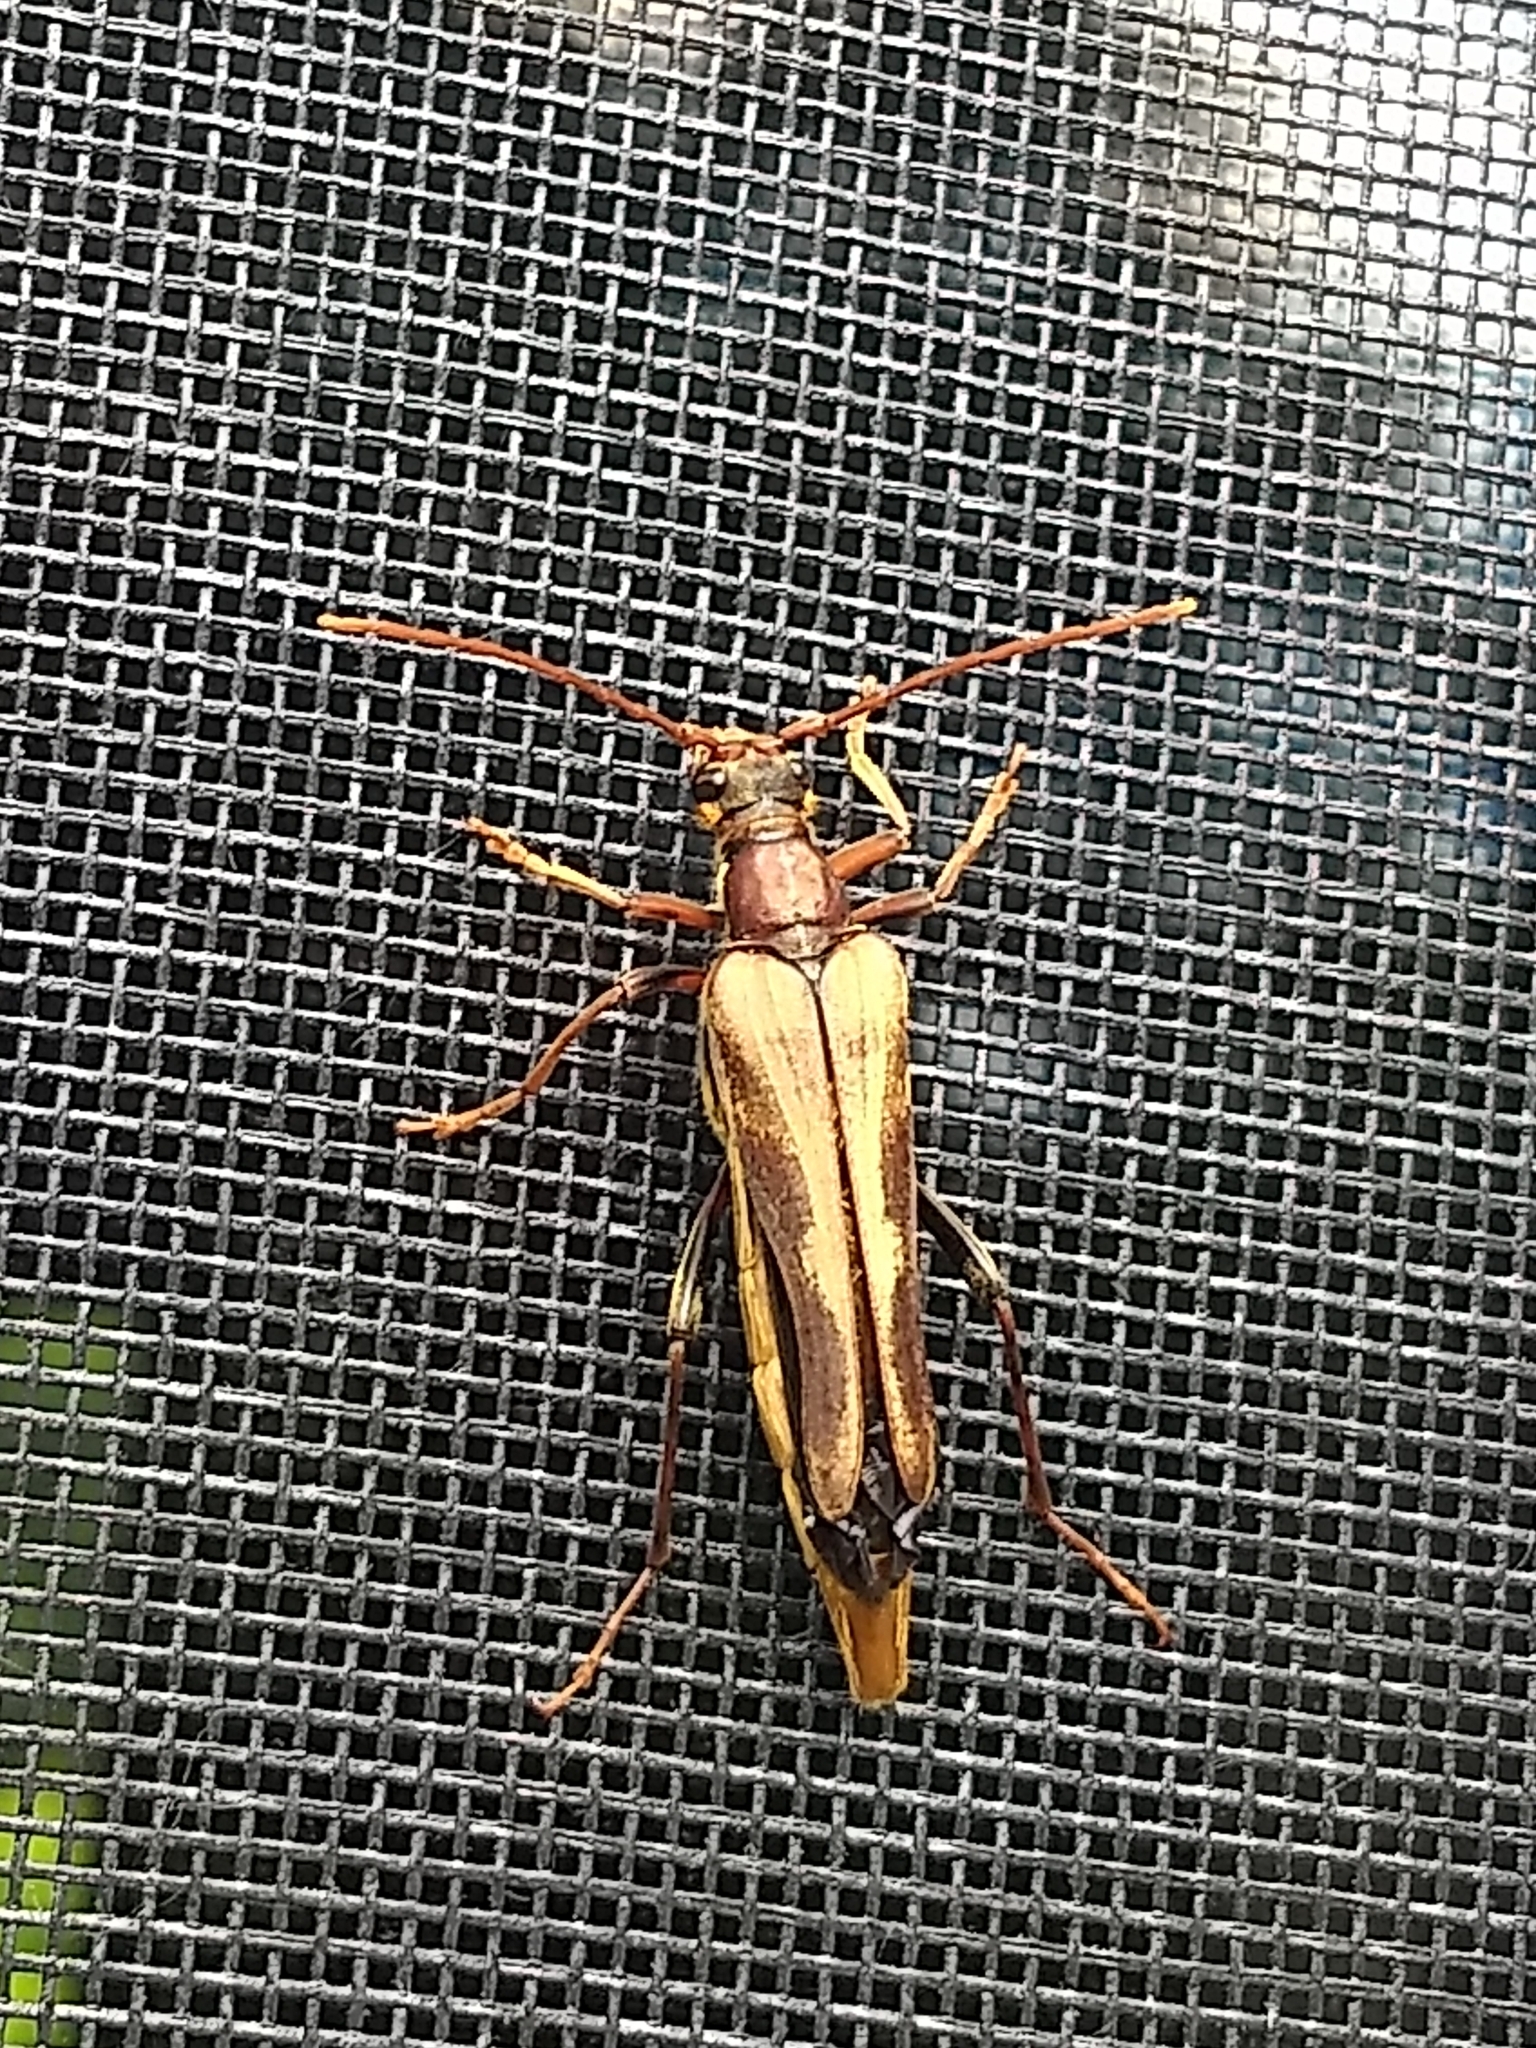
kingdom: Animalia
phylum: Arthropoda
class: Insecta
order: Coleoptera
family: Cerambycidae
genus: Bellamira
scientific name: Bellamira scalaris
